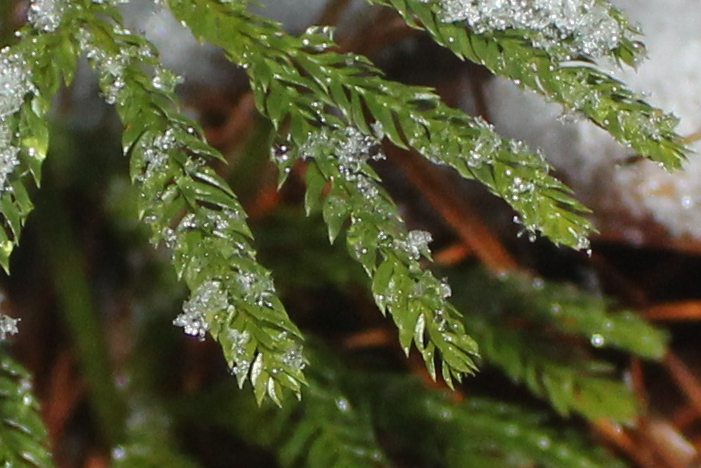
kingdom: Plantae
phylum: Tracheophyta
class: Lycopodiopsida
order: Lycopodiales
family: Lycopodiaceae
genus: Dendrolycopodium
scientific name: Dendrolycopodium obscurum
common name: Common ground-pine
